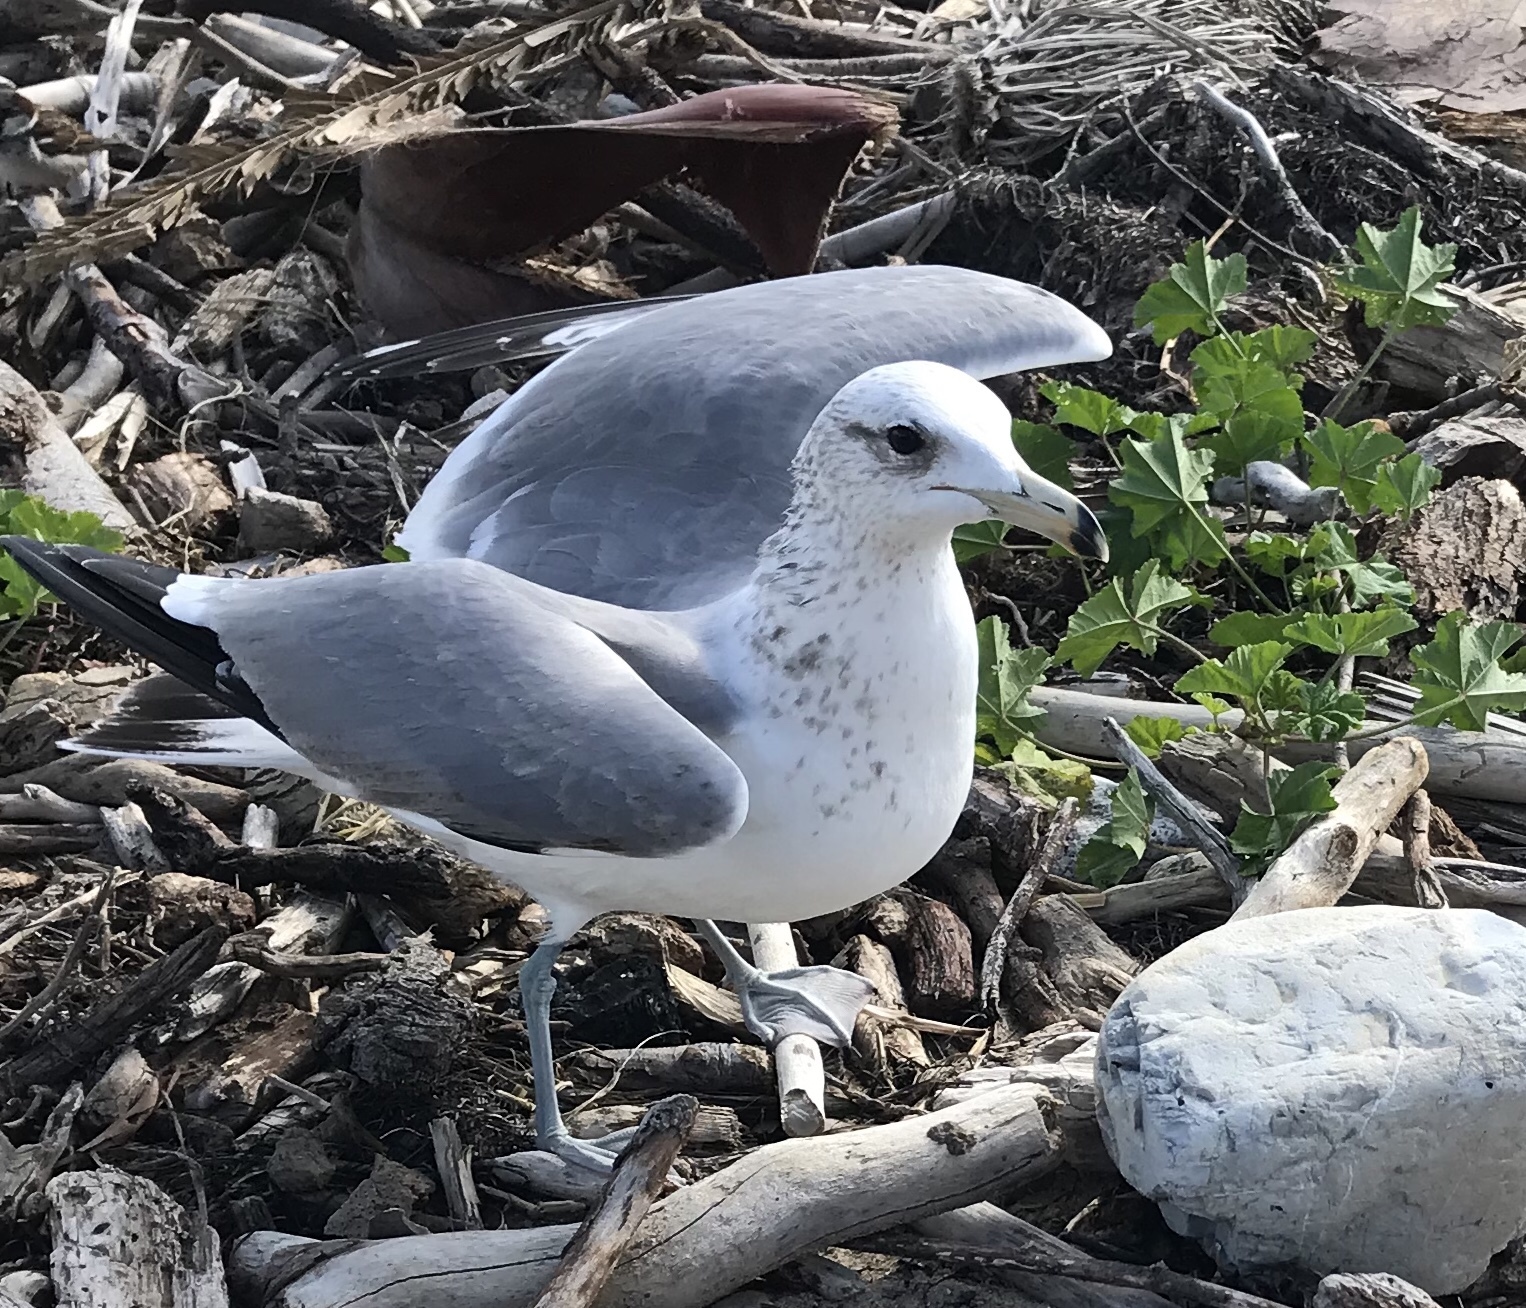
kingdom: Animalia
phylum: Chordata
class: Aves
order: Charadriiformes
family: Laridae
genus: Larus
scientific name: Larus californicus
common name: California gull
